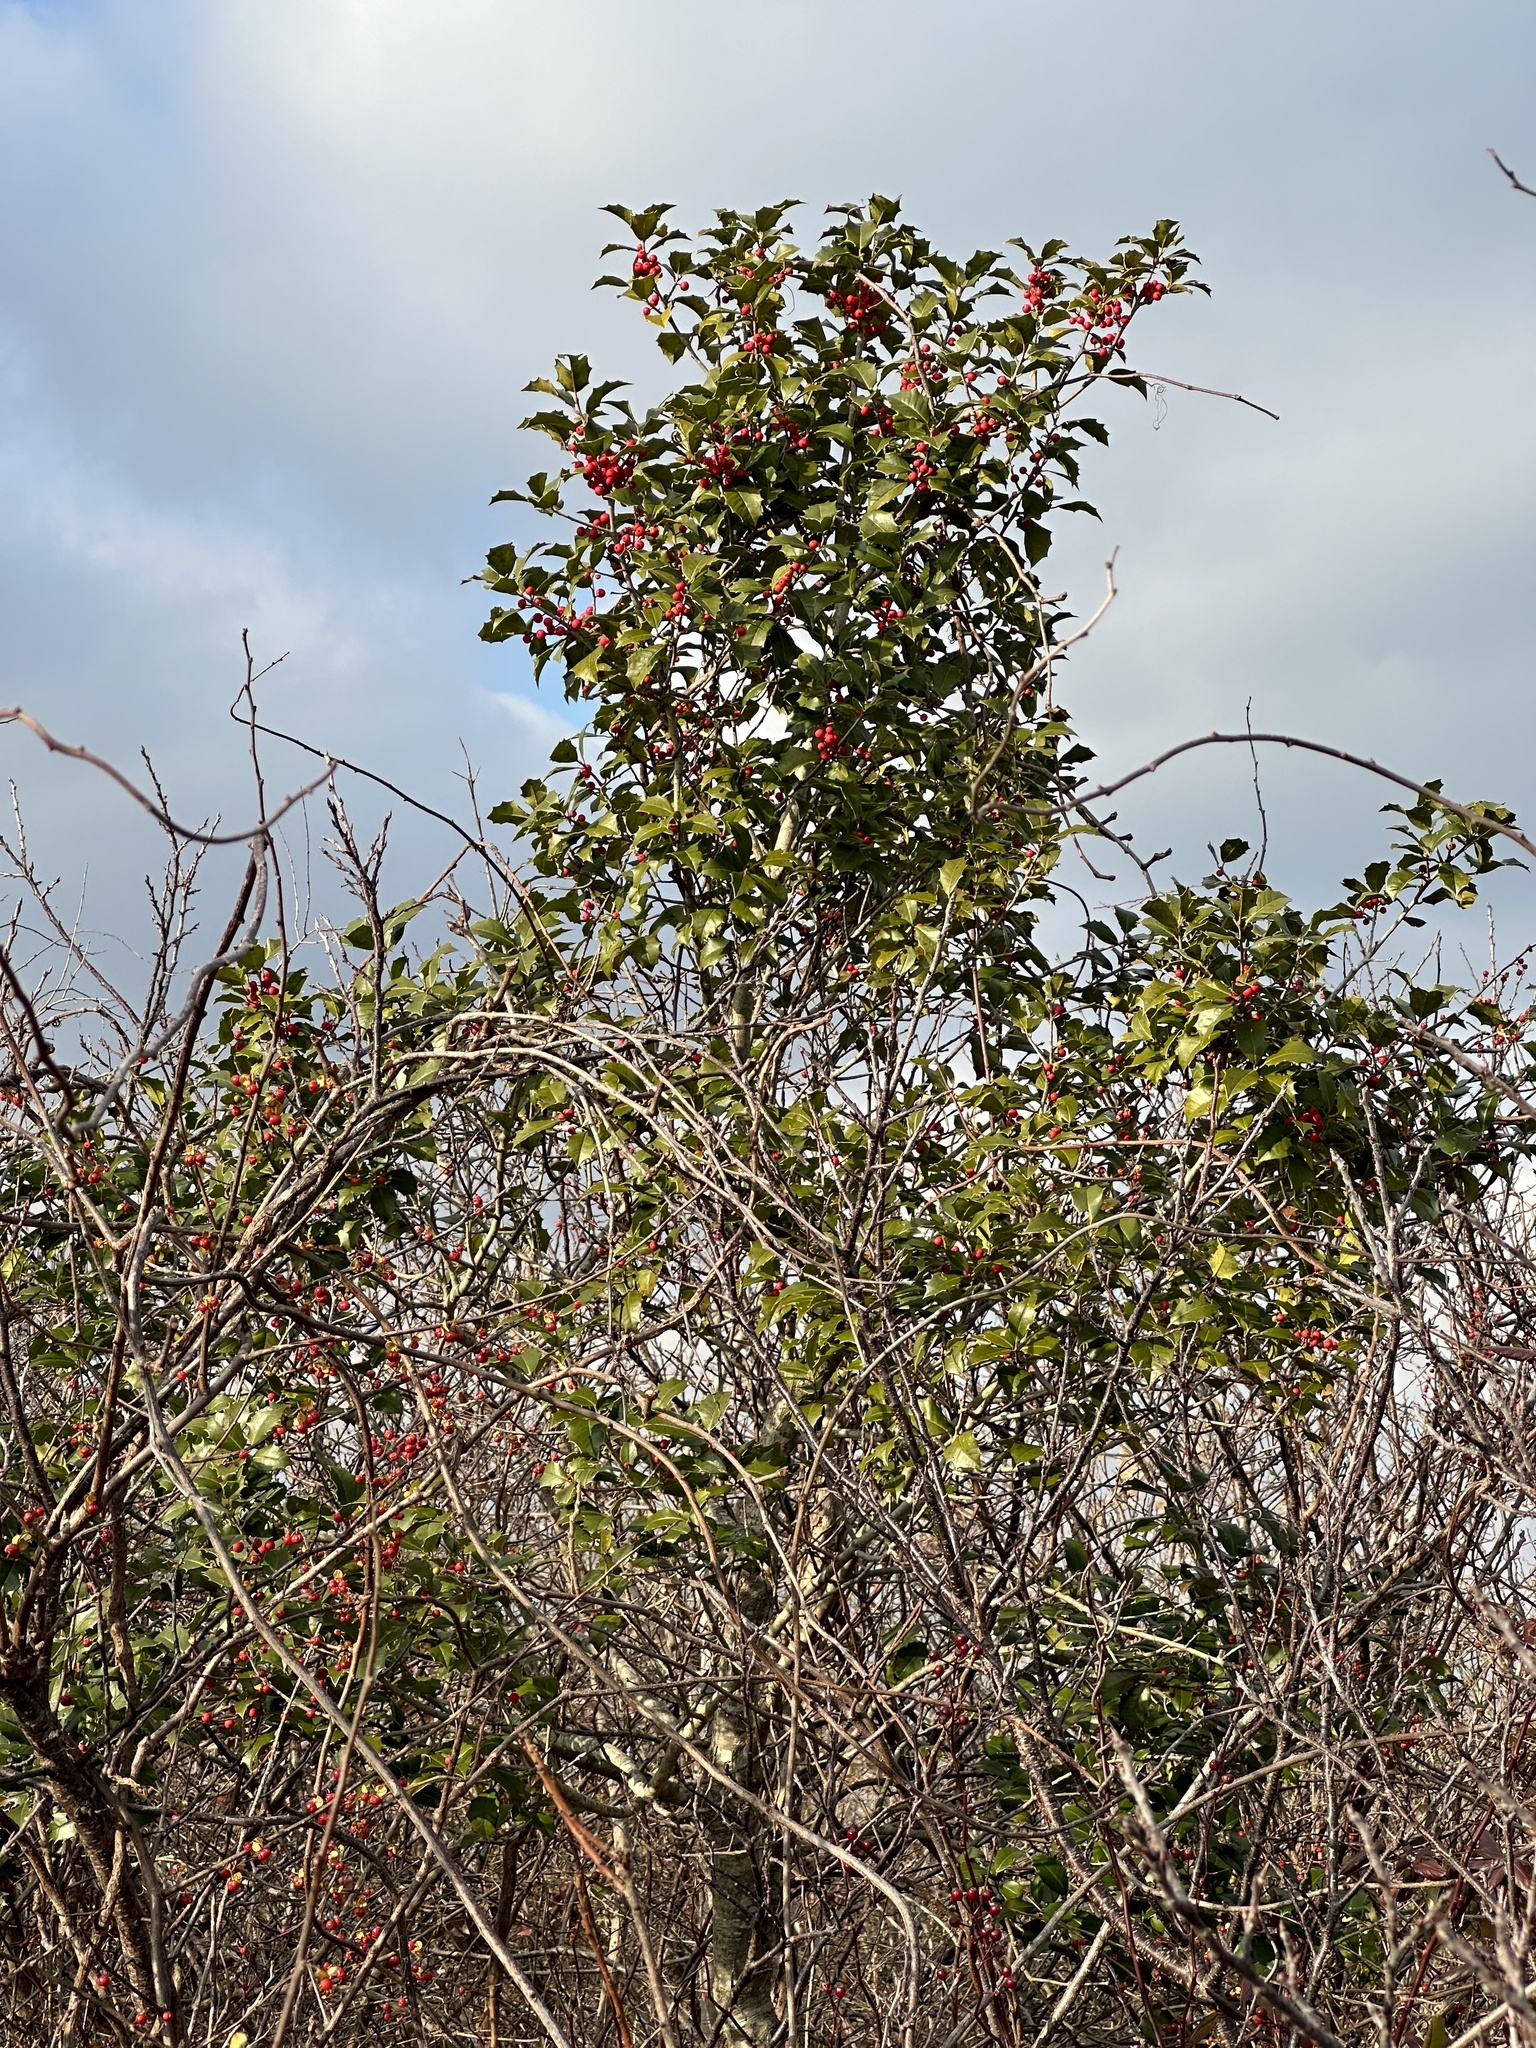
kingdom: Plantae
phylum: Tracheophyta
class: Magnoliopsida
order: Aquifoliales
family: Aquifoliaceae
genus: Ilex
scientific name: Ilex opaca
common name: American holly
